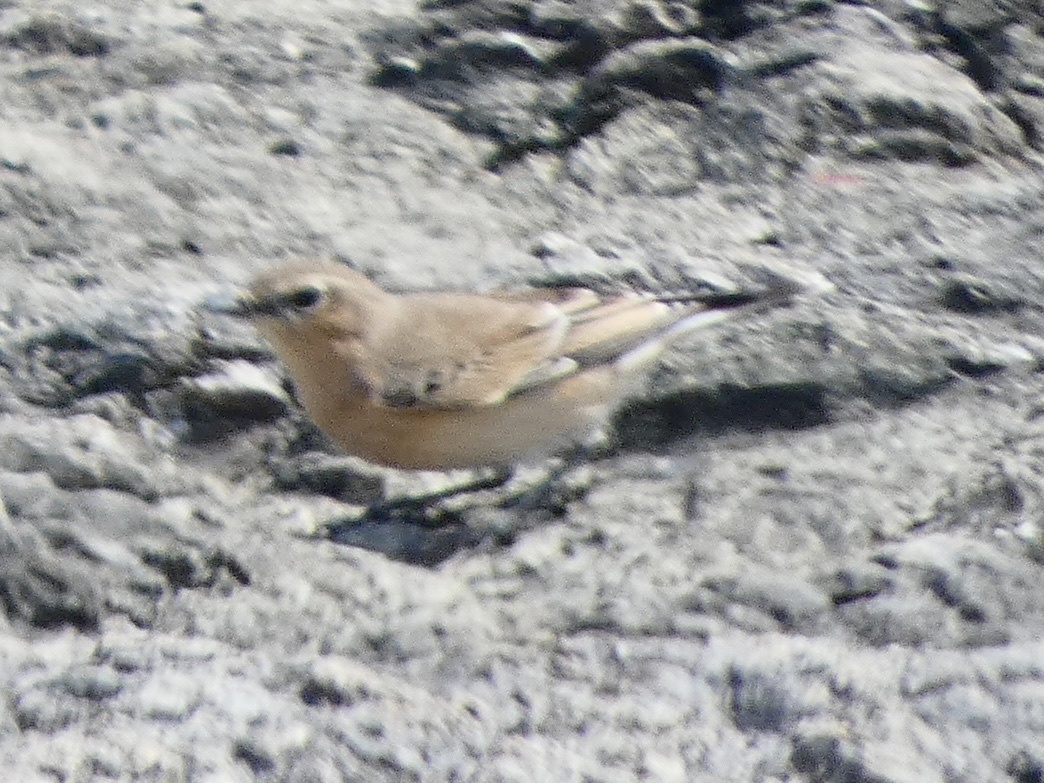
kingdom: Animalia
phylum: Chordata
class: Aves
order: Passeriformes
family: Muscicapidae
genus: Oenanthe
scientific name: Oenanthe oenanthe
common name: Northern wheatear
